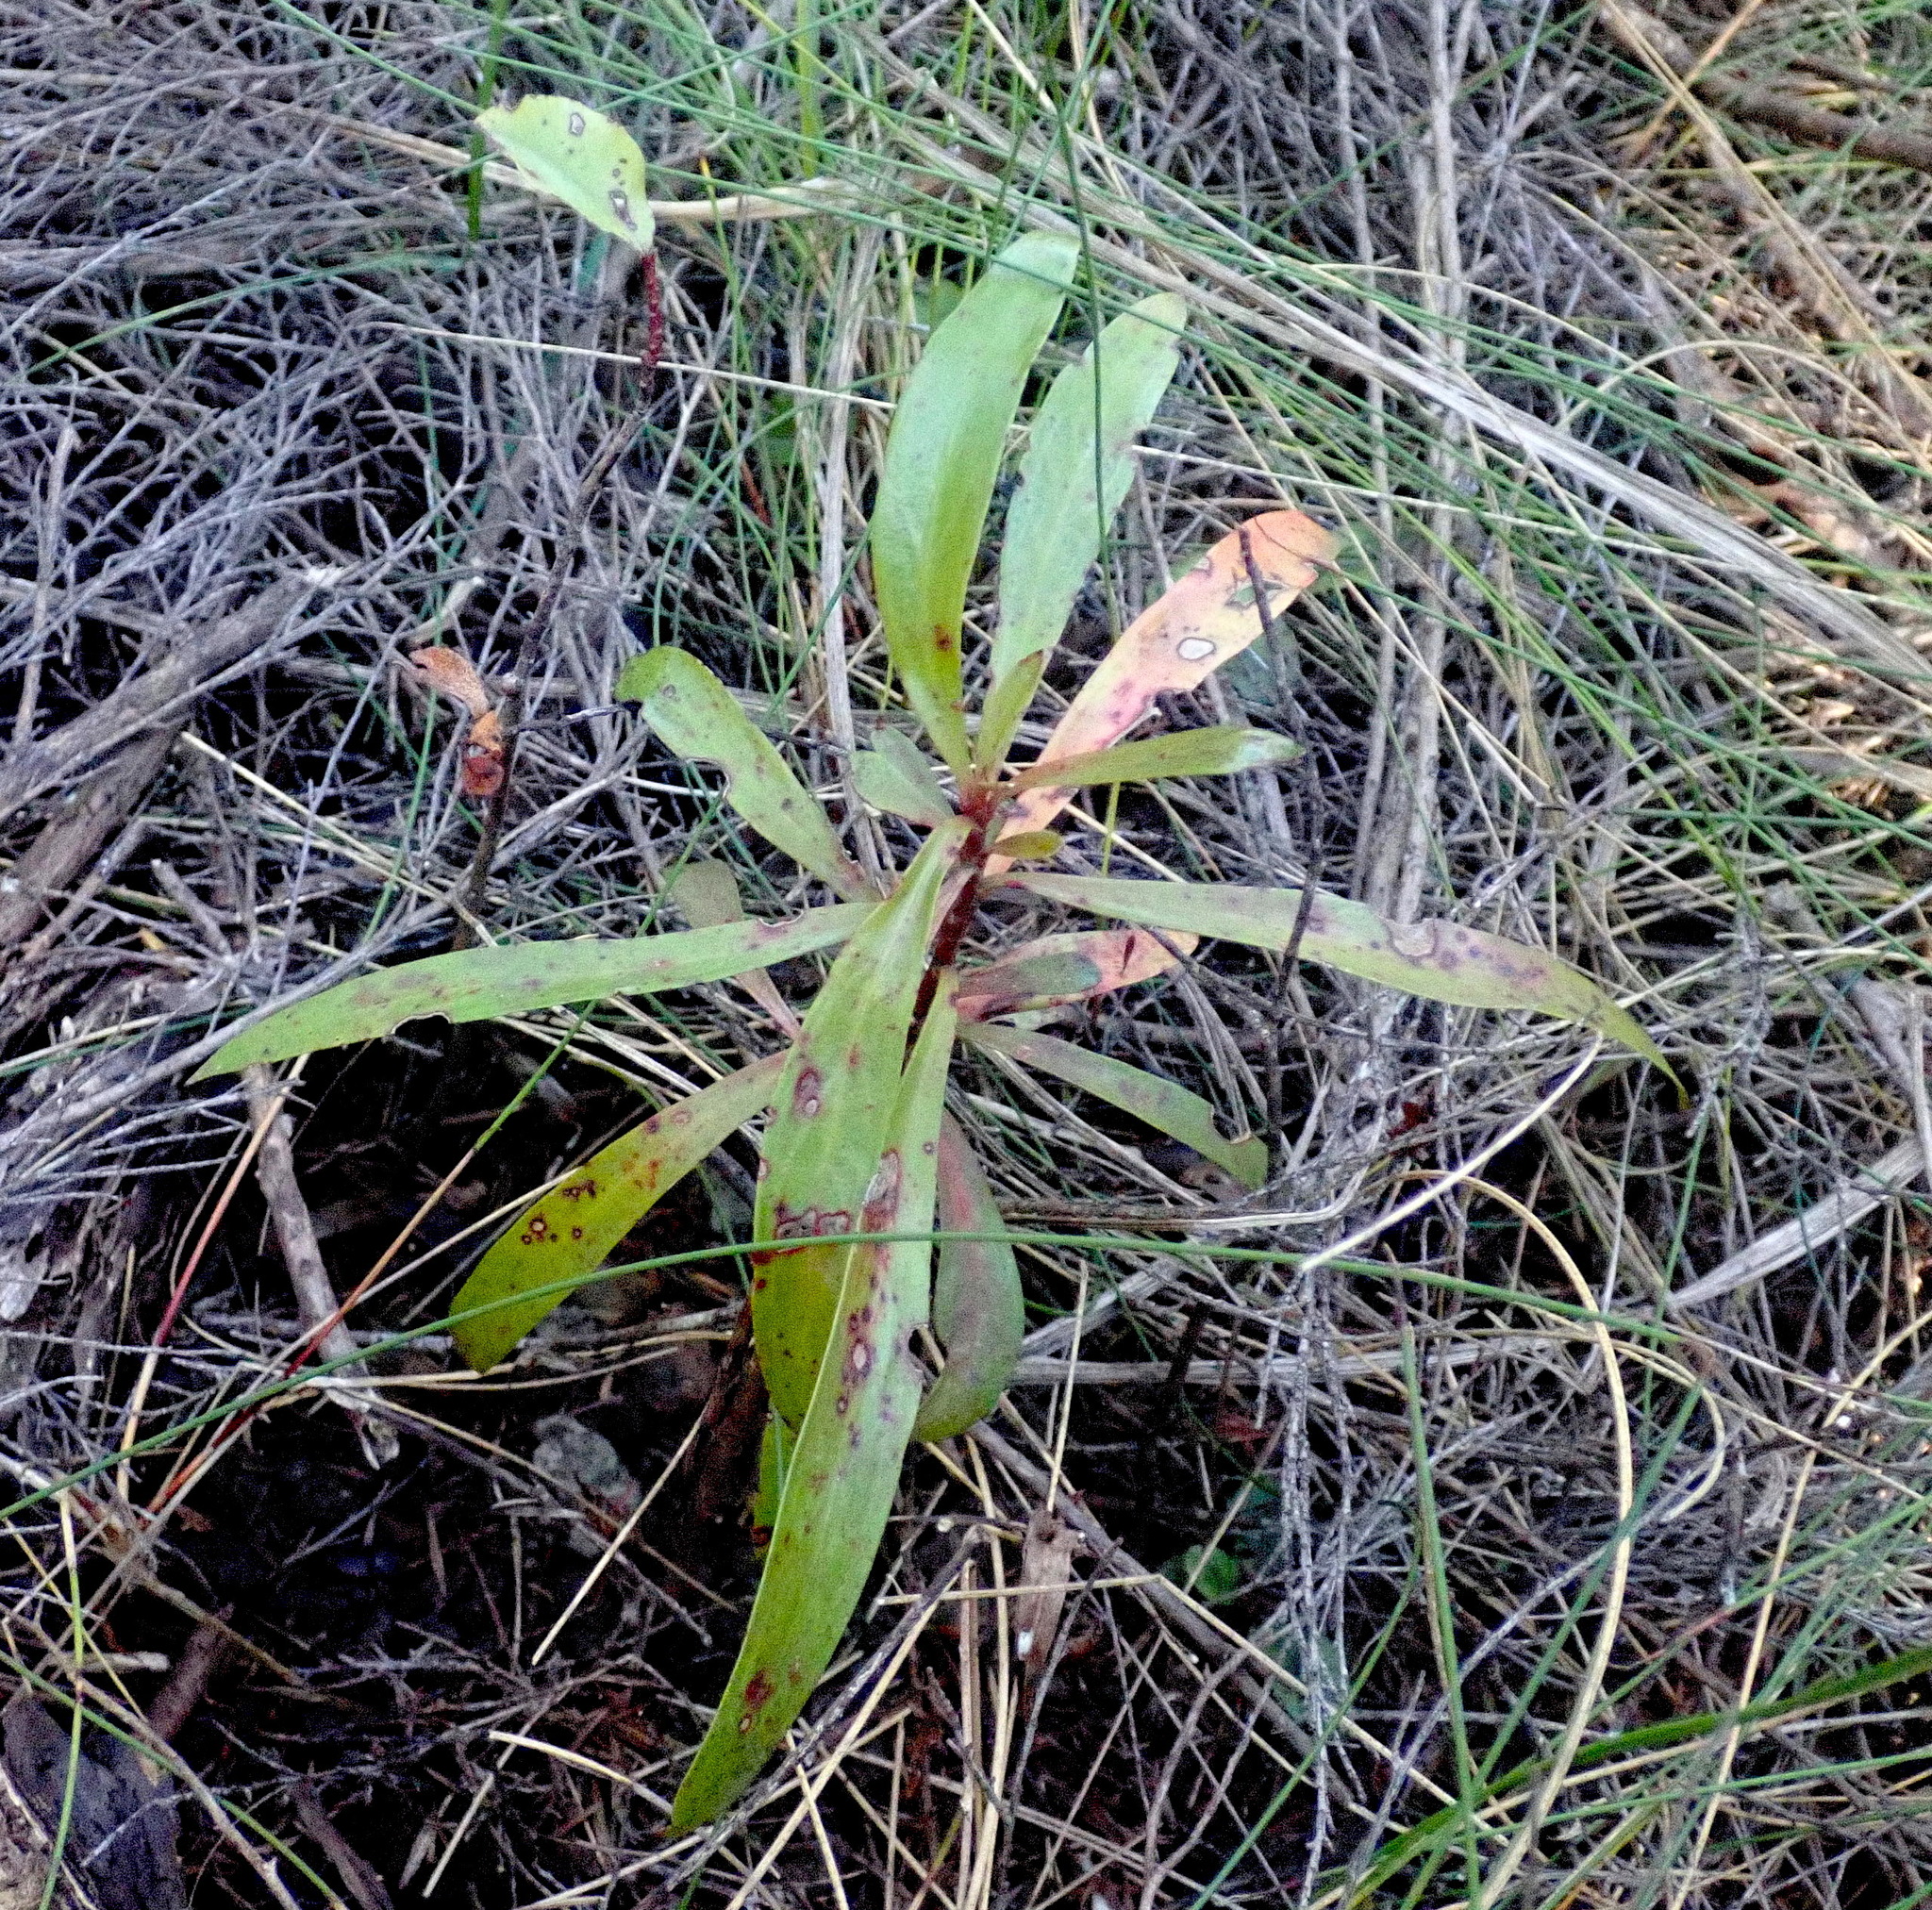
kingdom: Plantae
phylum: Tracheophyta
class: Magnoliopsida
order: Proteales
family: Proteaceae
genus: Toronia
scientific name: Toronia toru
